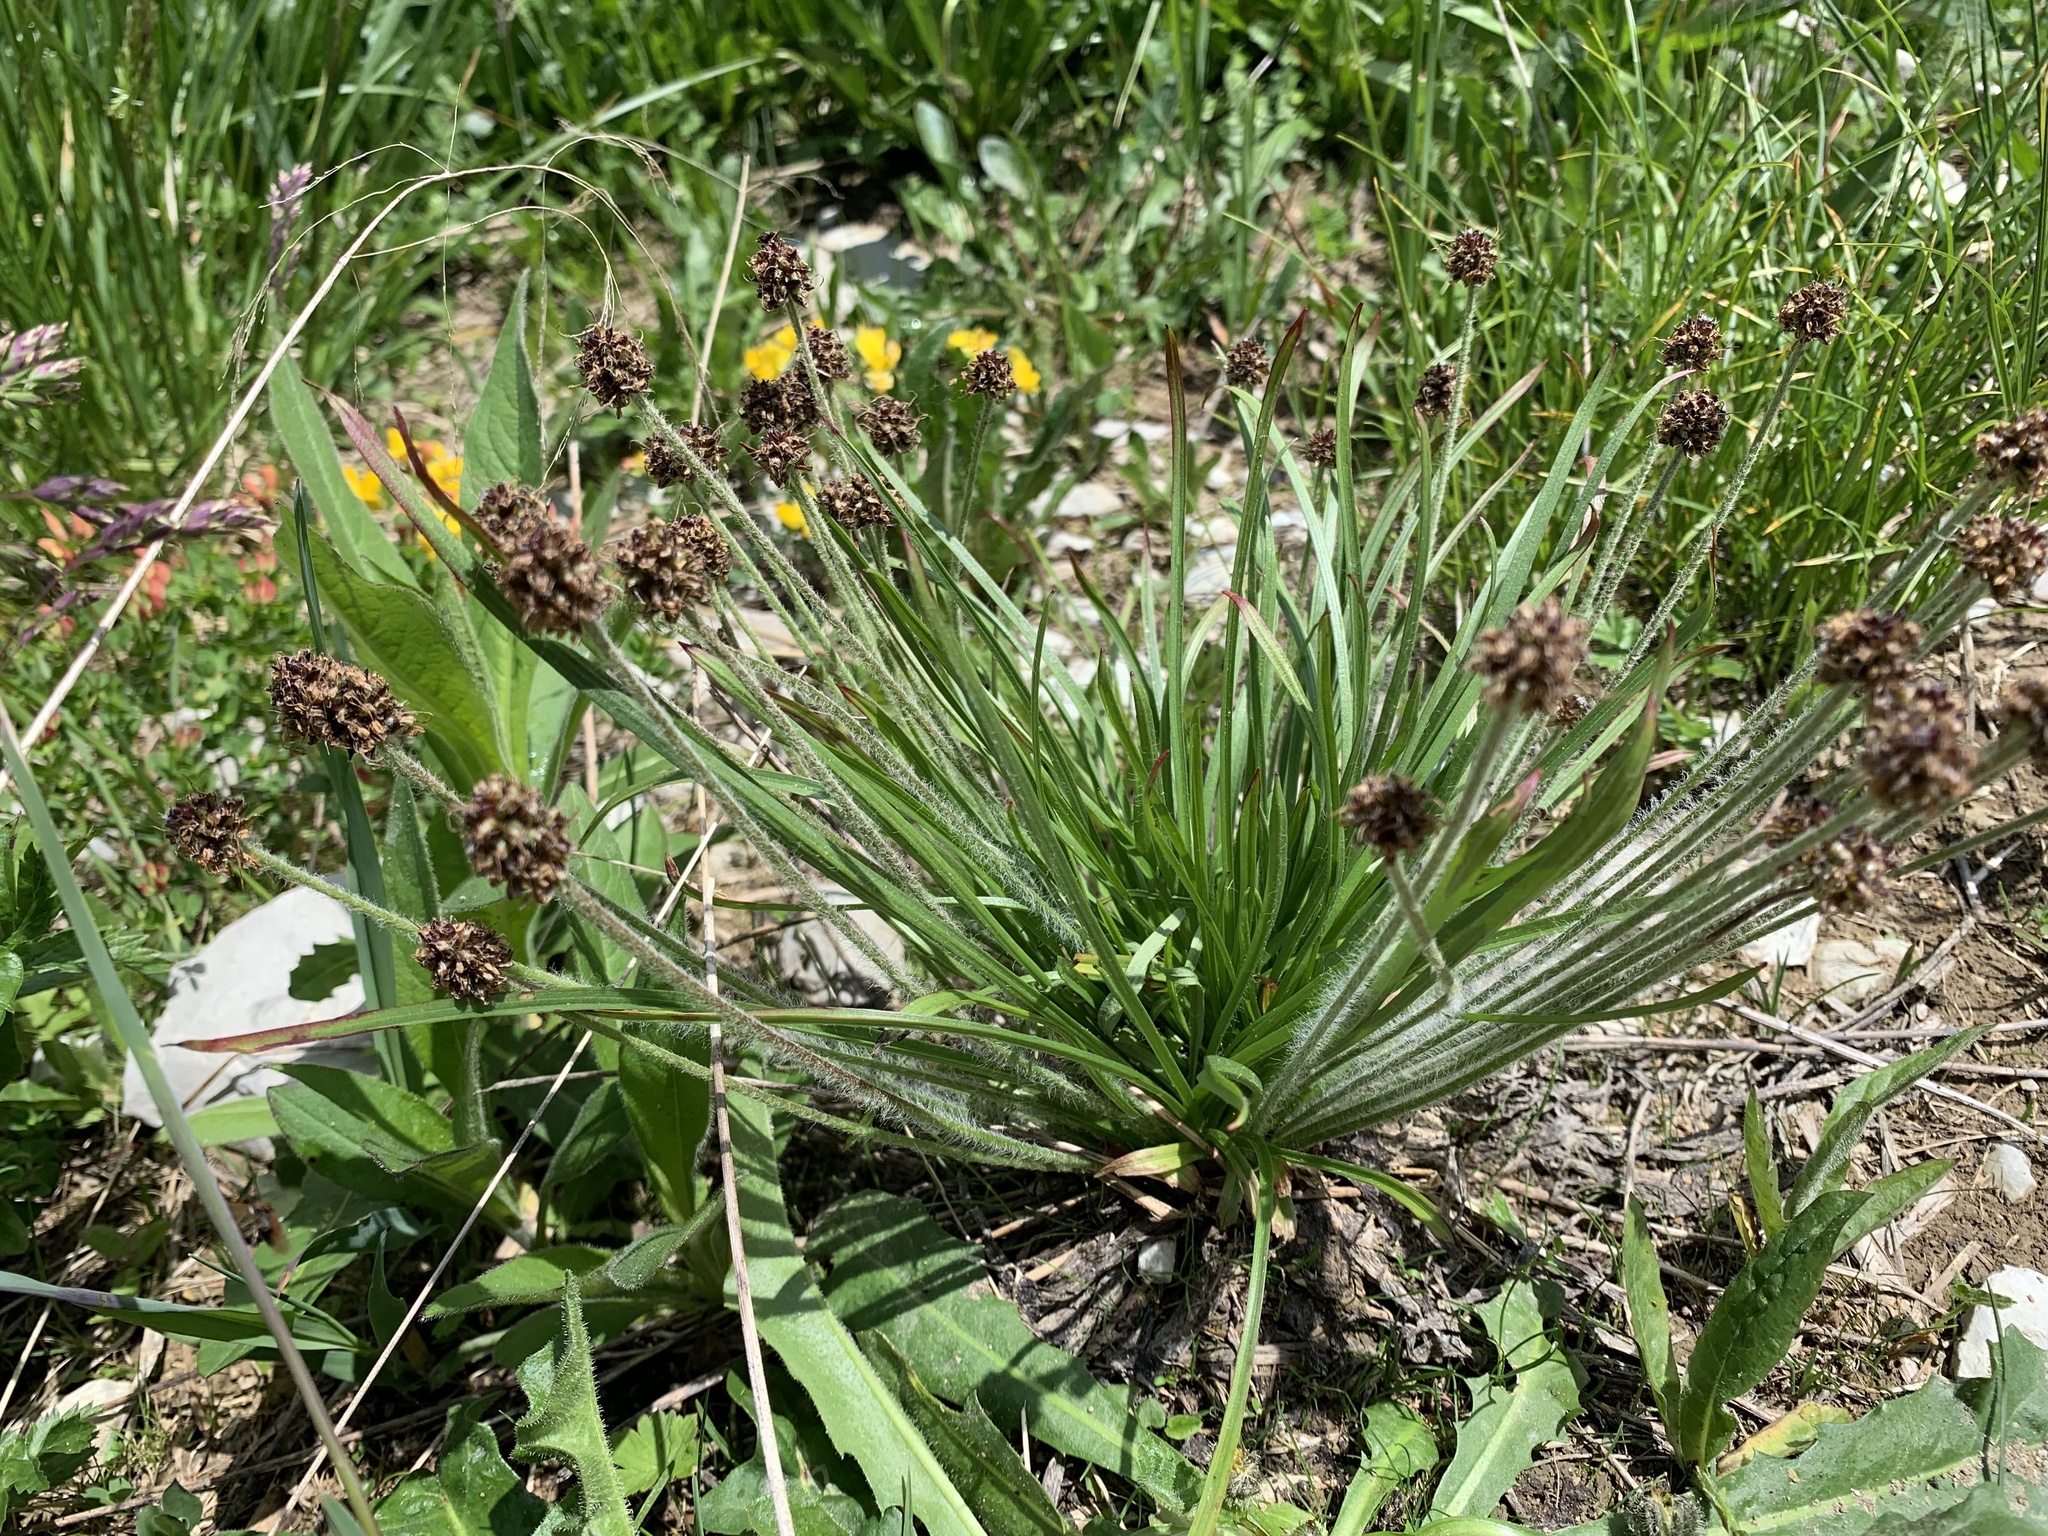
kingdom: Plantae
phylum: Tracheophyta
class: Magnoliopsida
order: Lamiales
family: Plantaginaceae
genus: Plantago
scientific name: Plantago atrata
